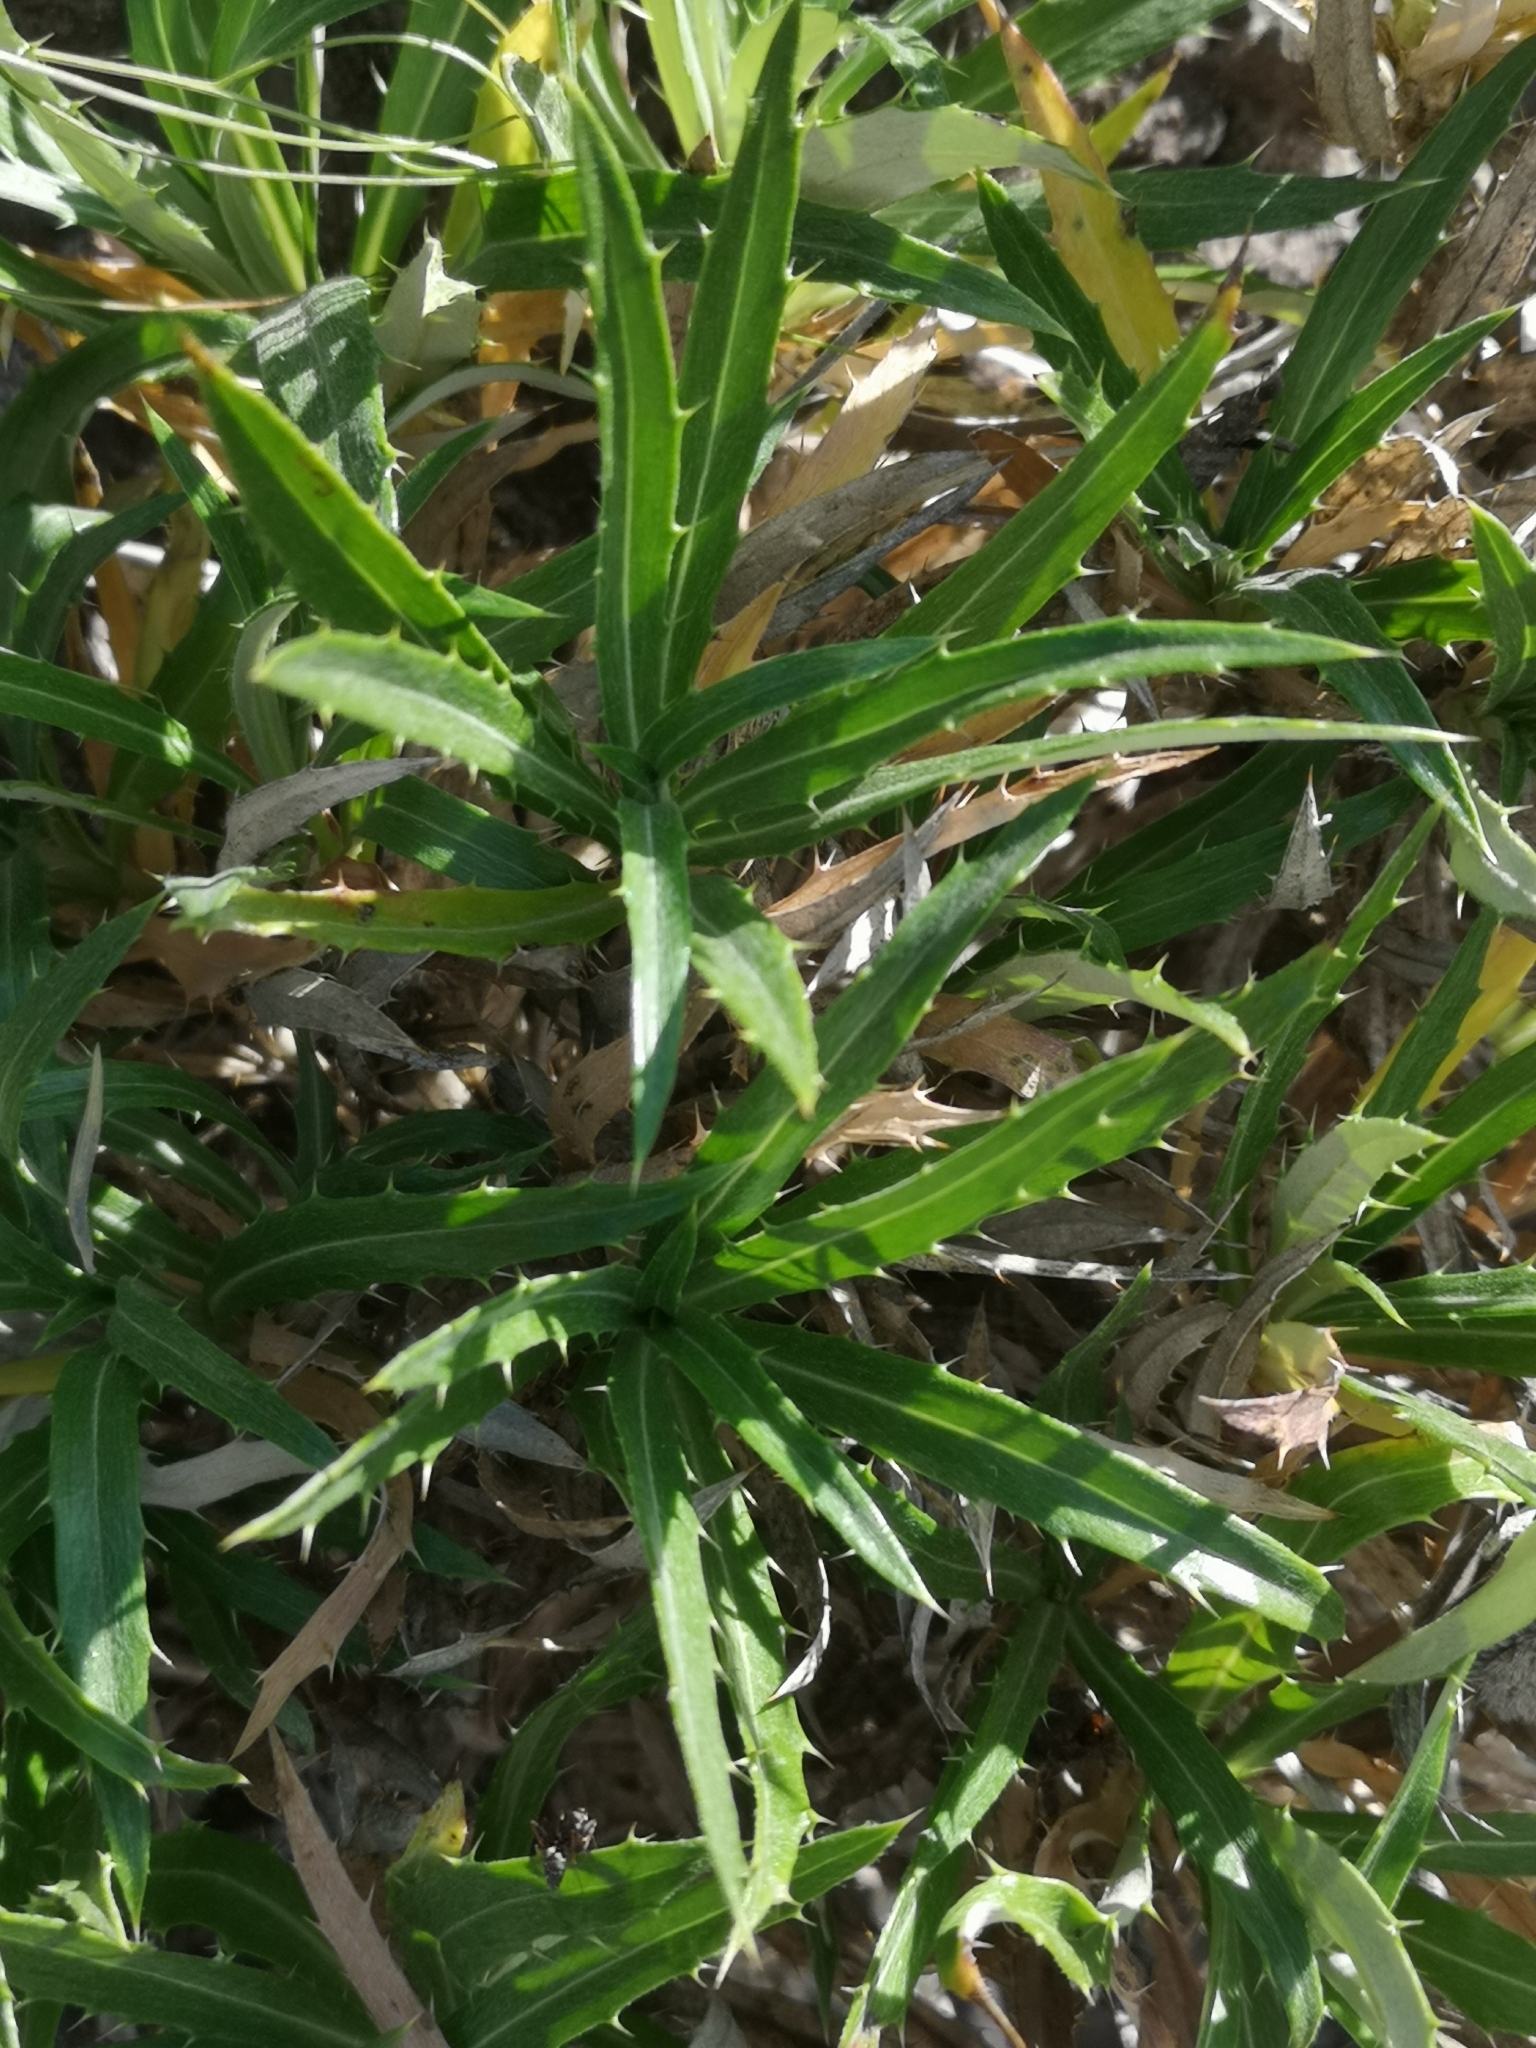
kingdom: Plantae
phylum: Tracheophyta
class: Magnoliopsida
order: Asterales
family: Asteraceae
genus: Carlina
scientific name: Carlina salicifolia
